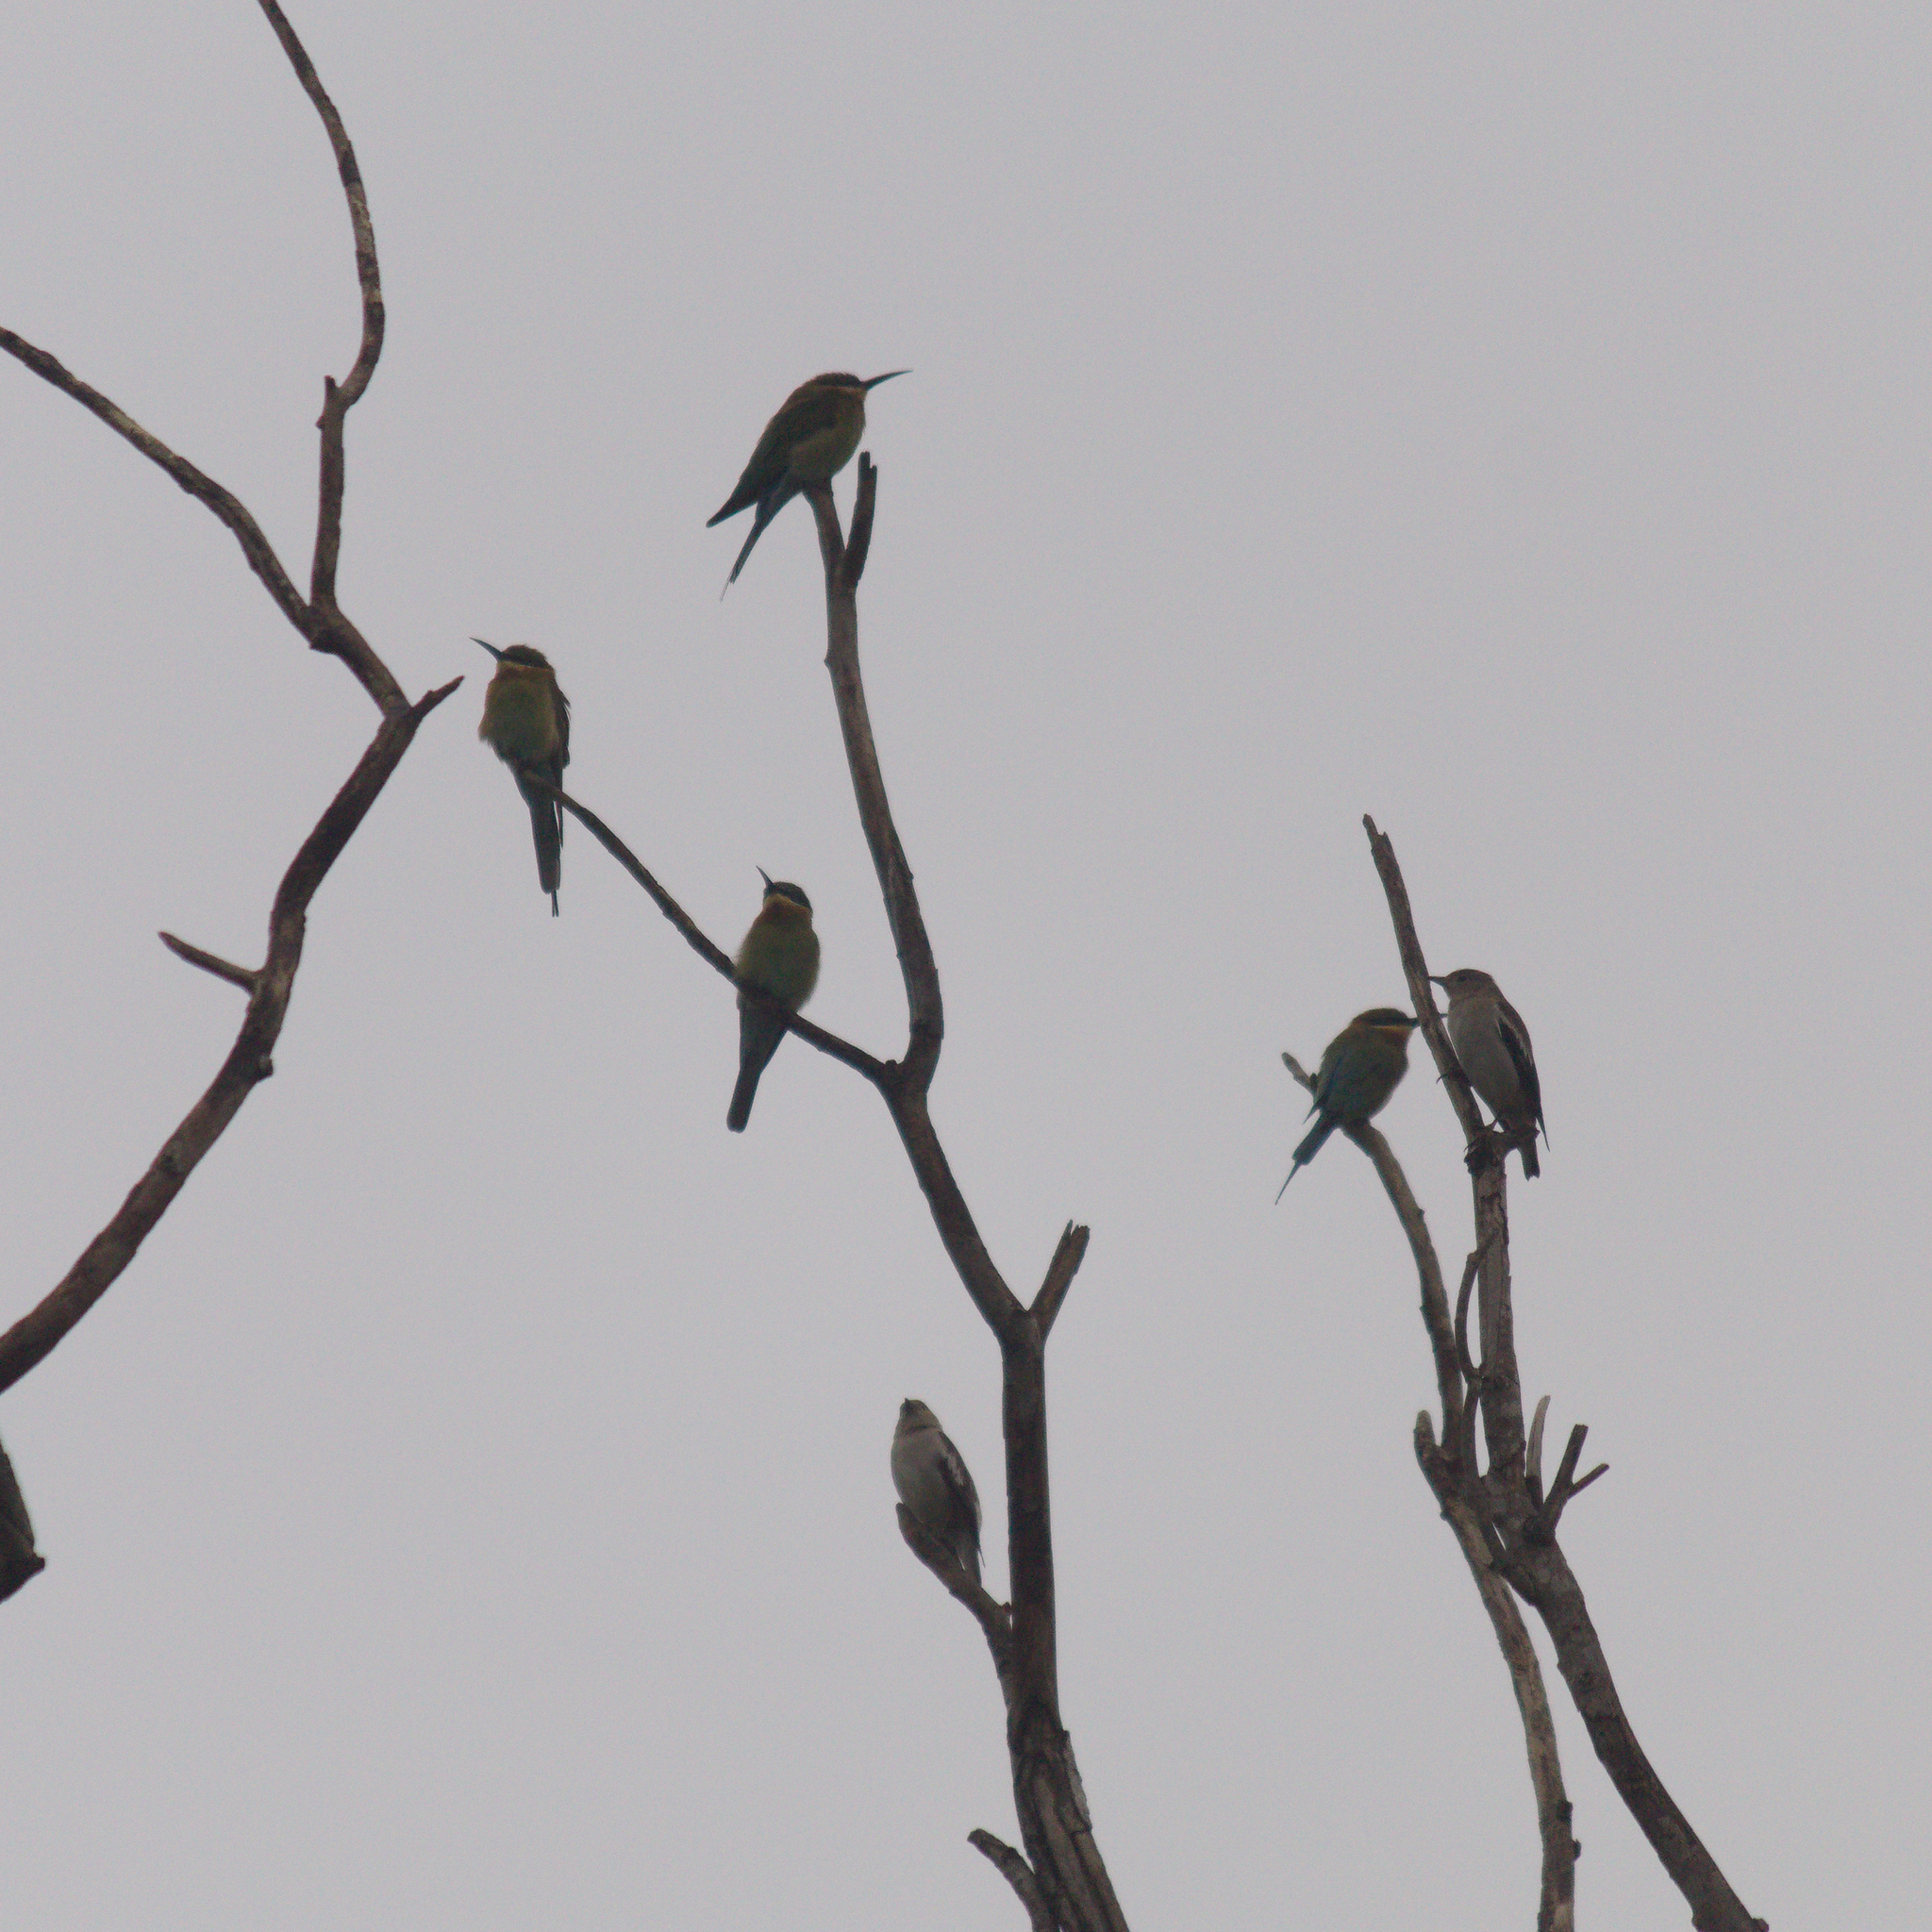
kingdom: Animalia
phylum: Chordata
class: Aves
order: Coraciiformes
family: Meropidae
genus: Merops
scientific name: Merops philippinus
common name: Blue-tailed bee-eater
